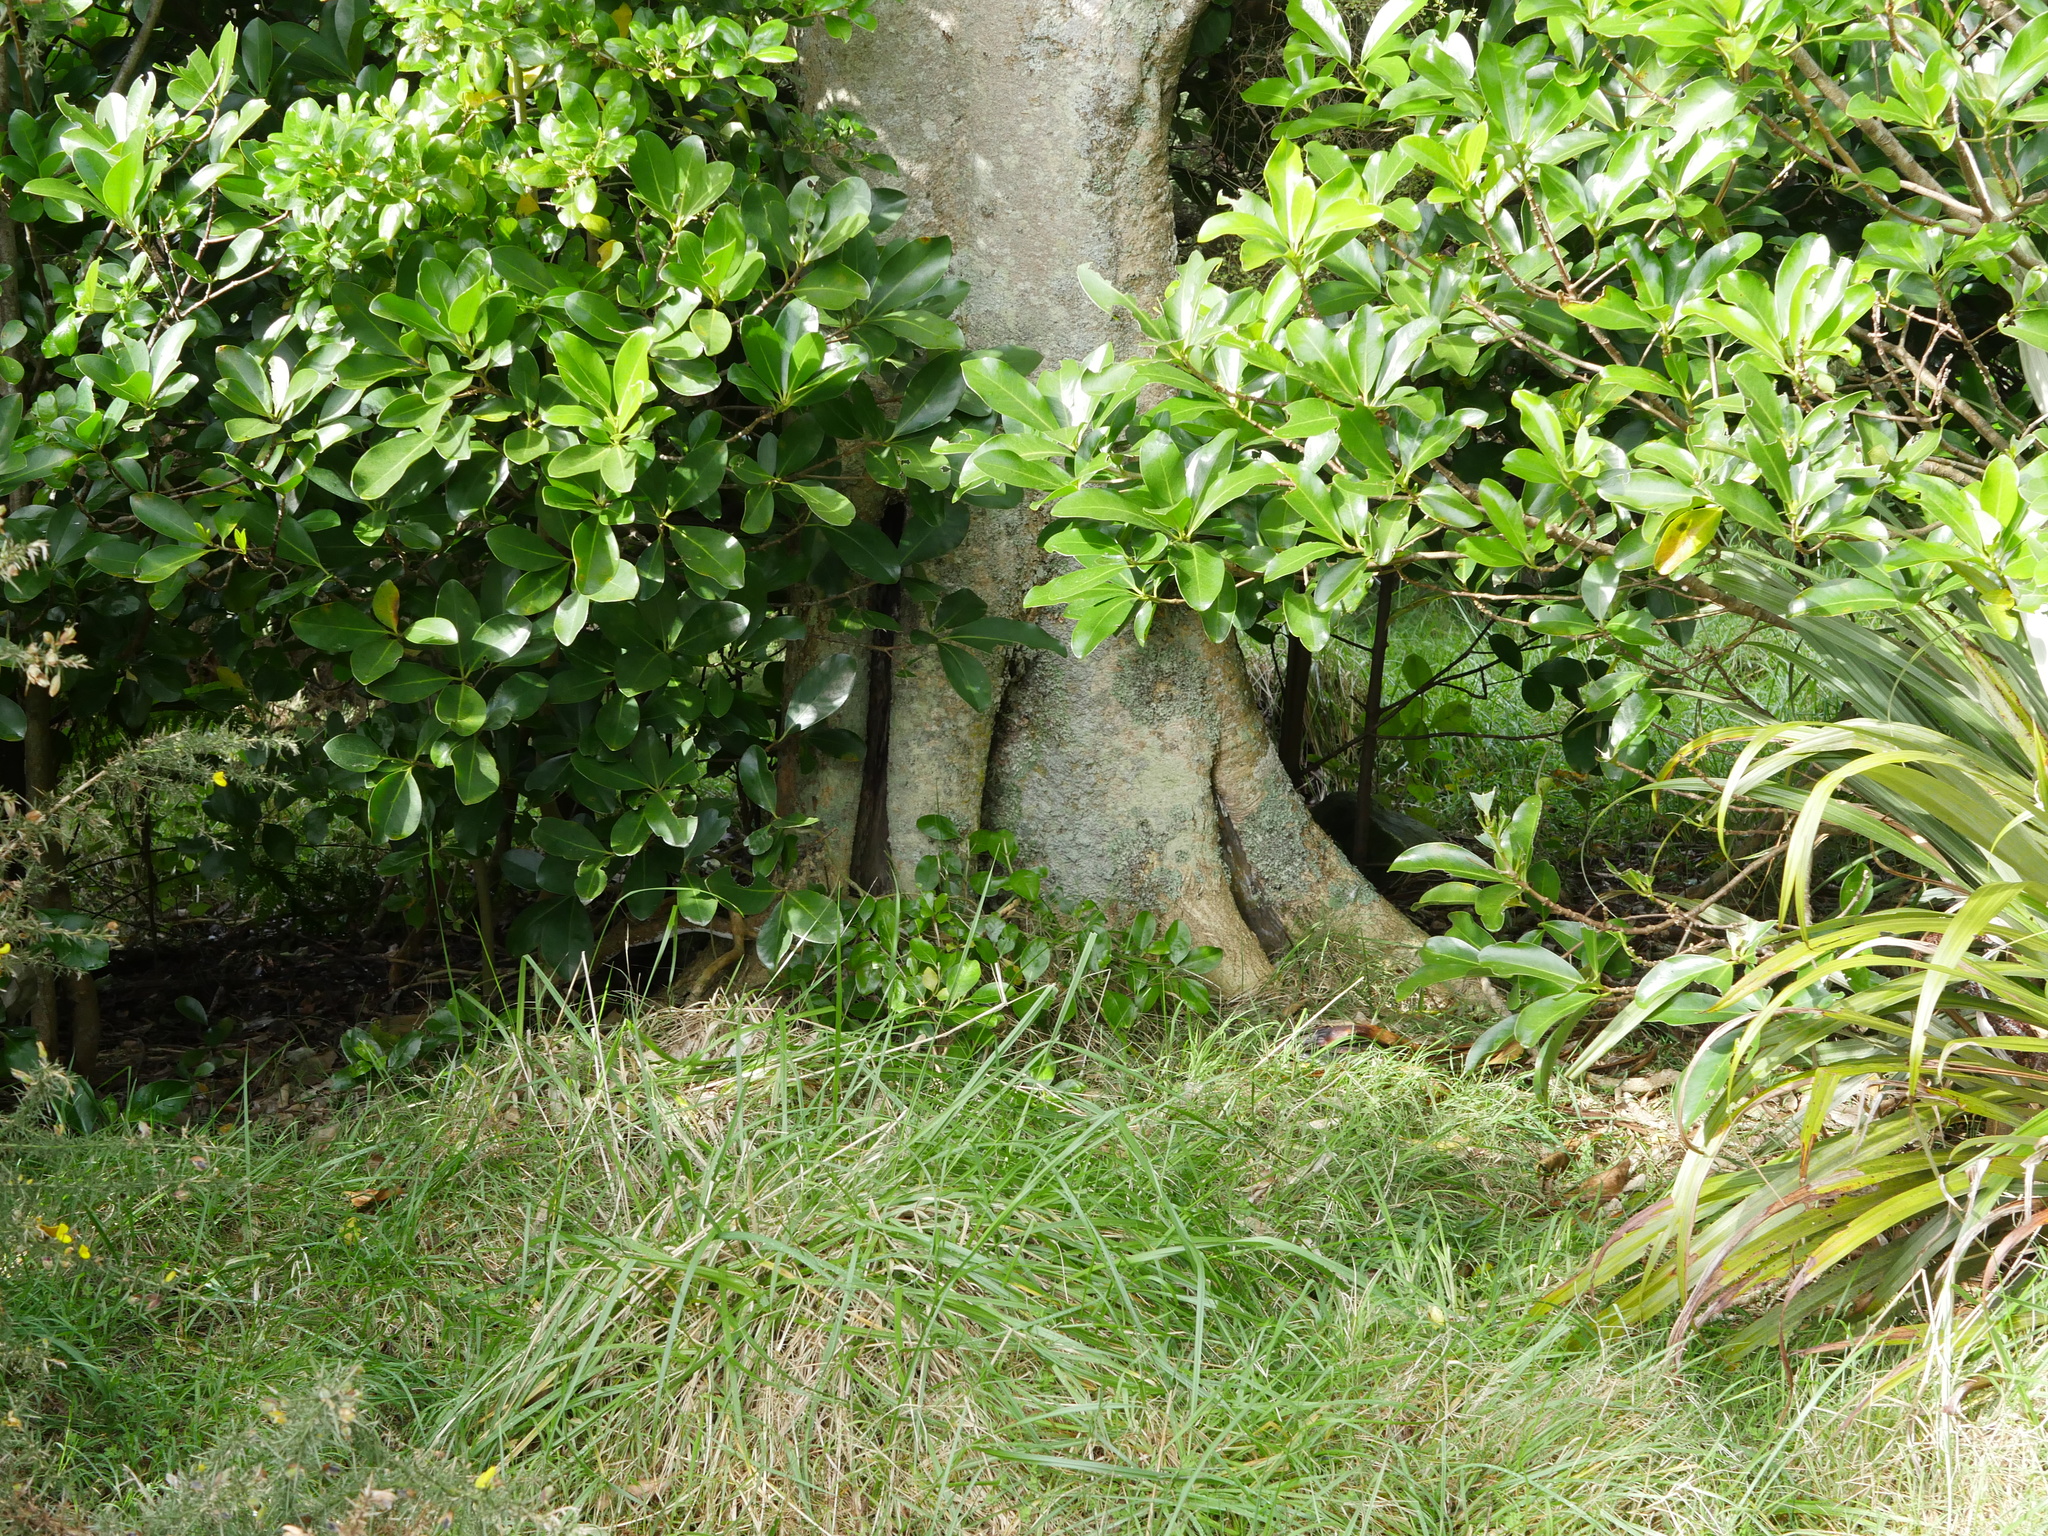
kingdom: Plantae
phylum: Tracheophyta
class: Magnoliopsida
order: Laurales
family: Atherospermataceae
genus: Laurelia
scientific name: Laurelia novae-zelandiae
